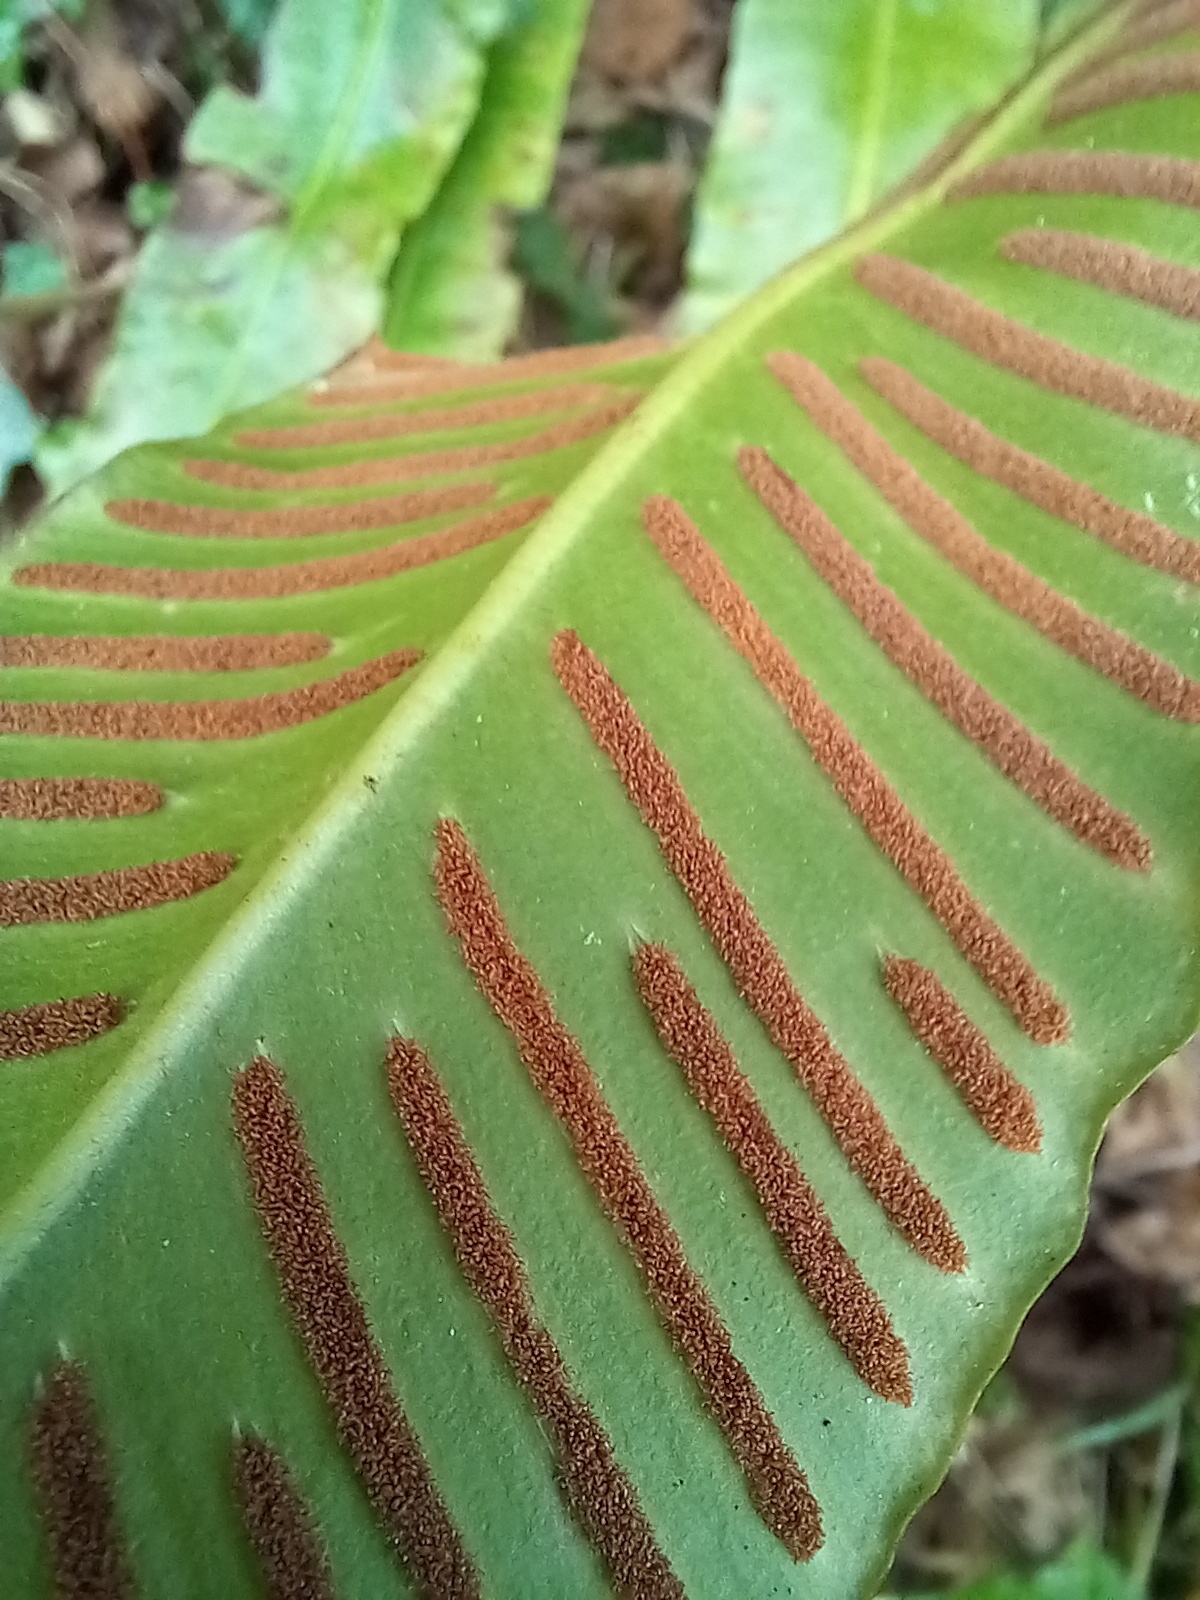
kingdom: Plantae
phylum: Tracheophyta
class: Polypodiopsida
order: Polypodiales
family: Aspleniaceae
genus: Asplenium
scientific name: Asplenium scolopendrium
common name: Hart's-tongue fern
